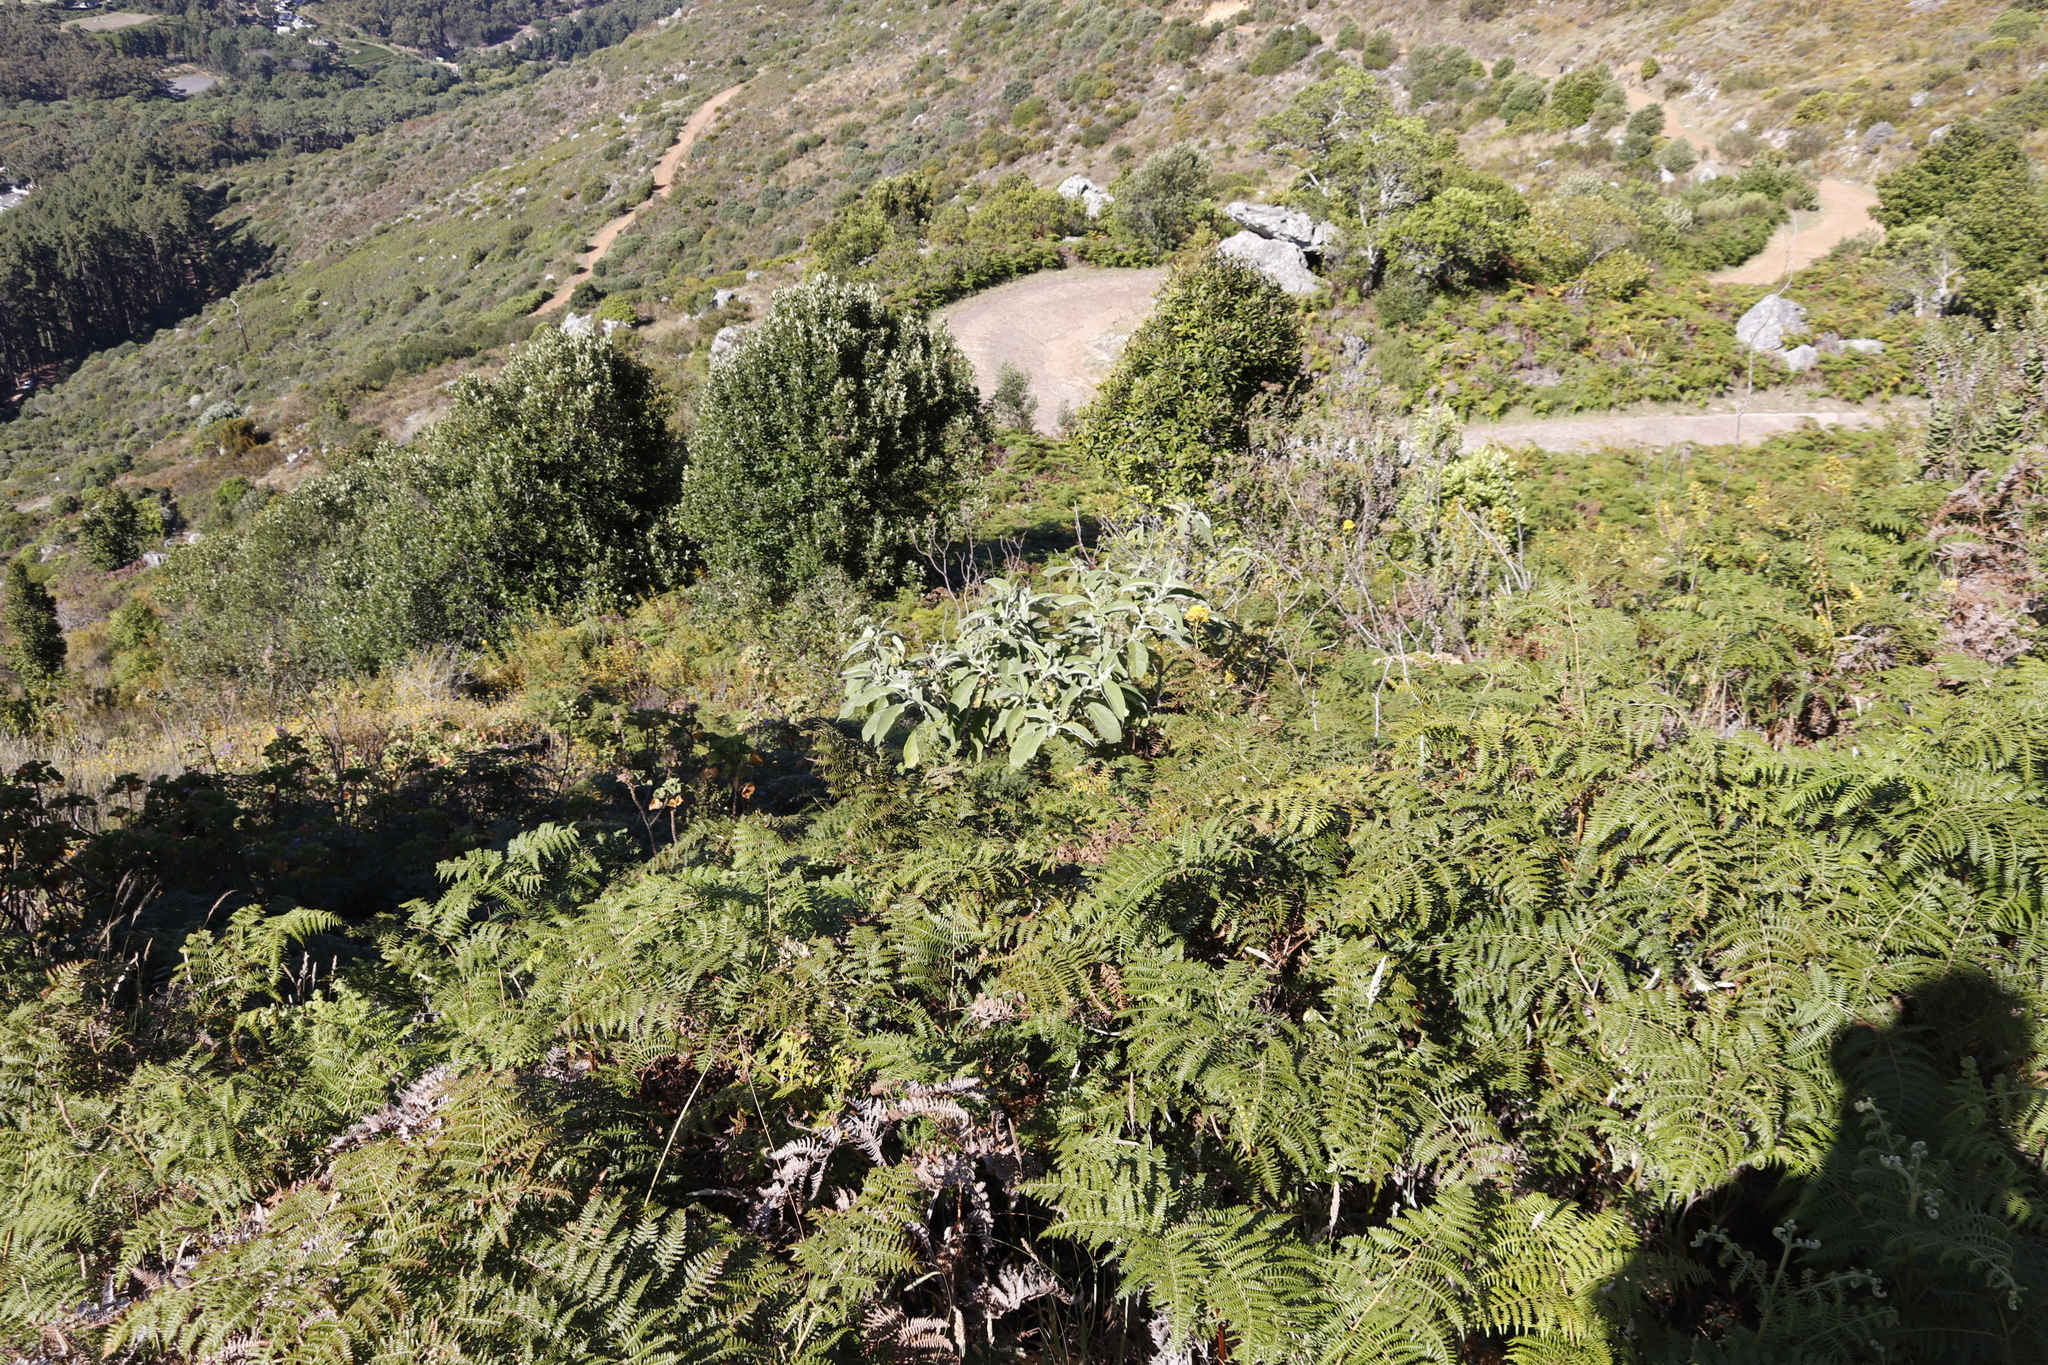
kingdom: Plantae
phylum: Tracheophyta
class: Magnoliopsida
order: Solanales
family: Solanaceae
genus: Solanum
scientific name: Solanum mauritianum
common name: Earleaf nightshade
